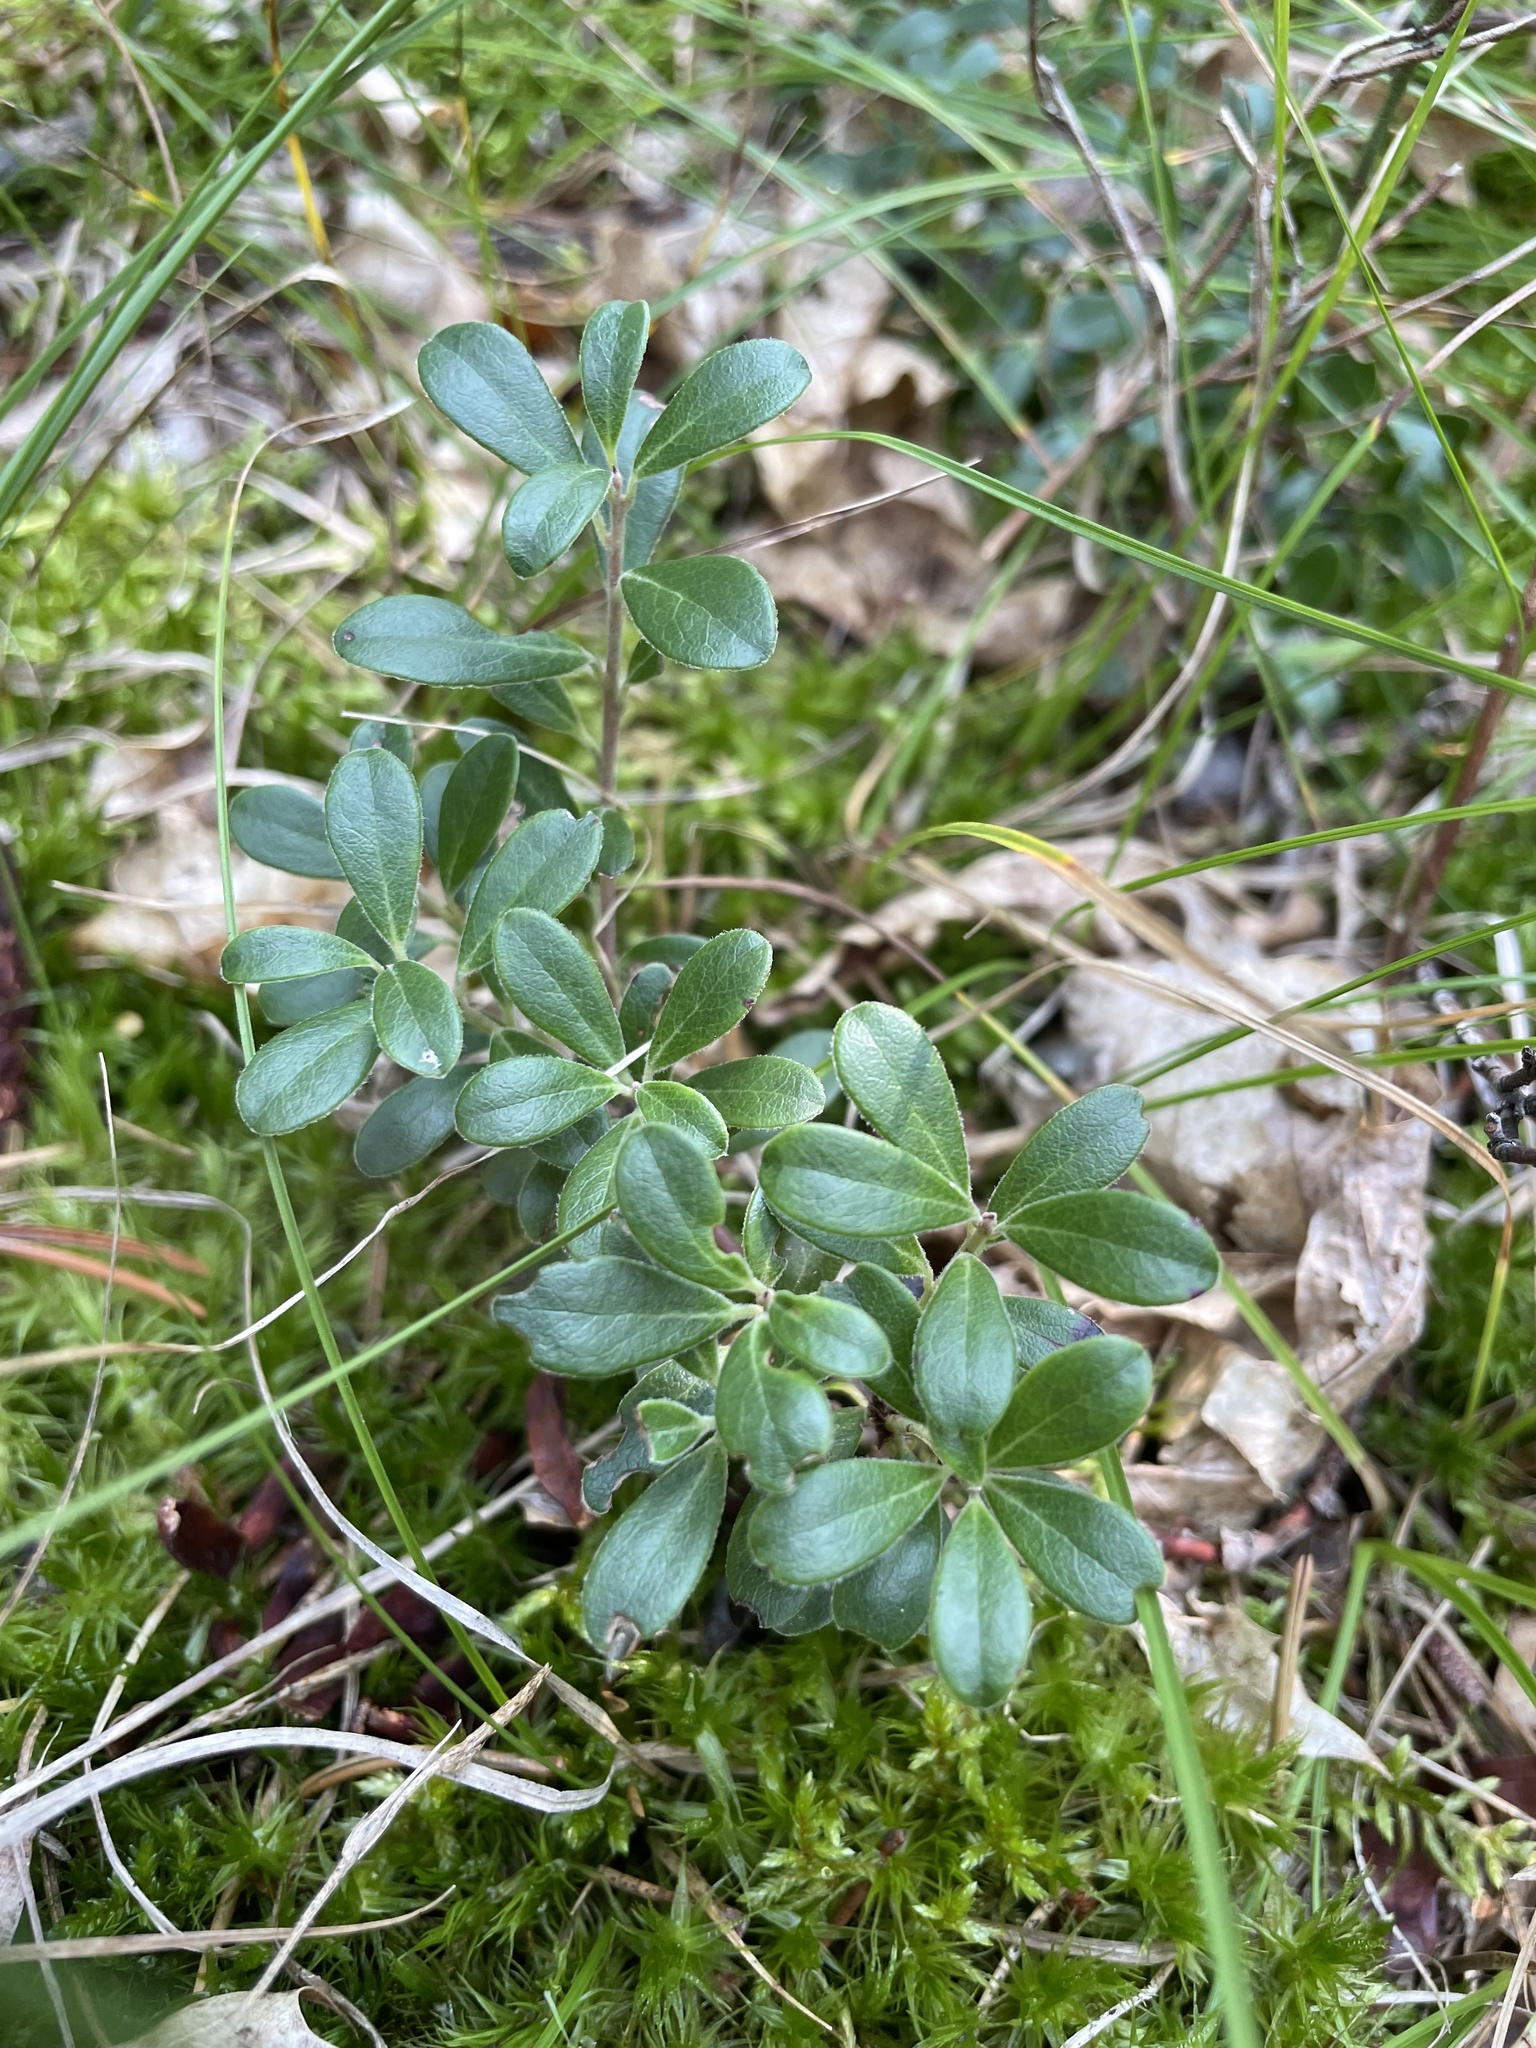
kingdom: Plantae
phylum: Tracheophyta
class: Magnoliopsida
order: Ericales
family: Ericaceae
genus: Arctostaphylos
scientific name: Arctostaphylos uva-ursi
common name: Bearberry
